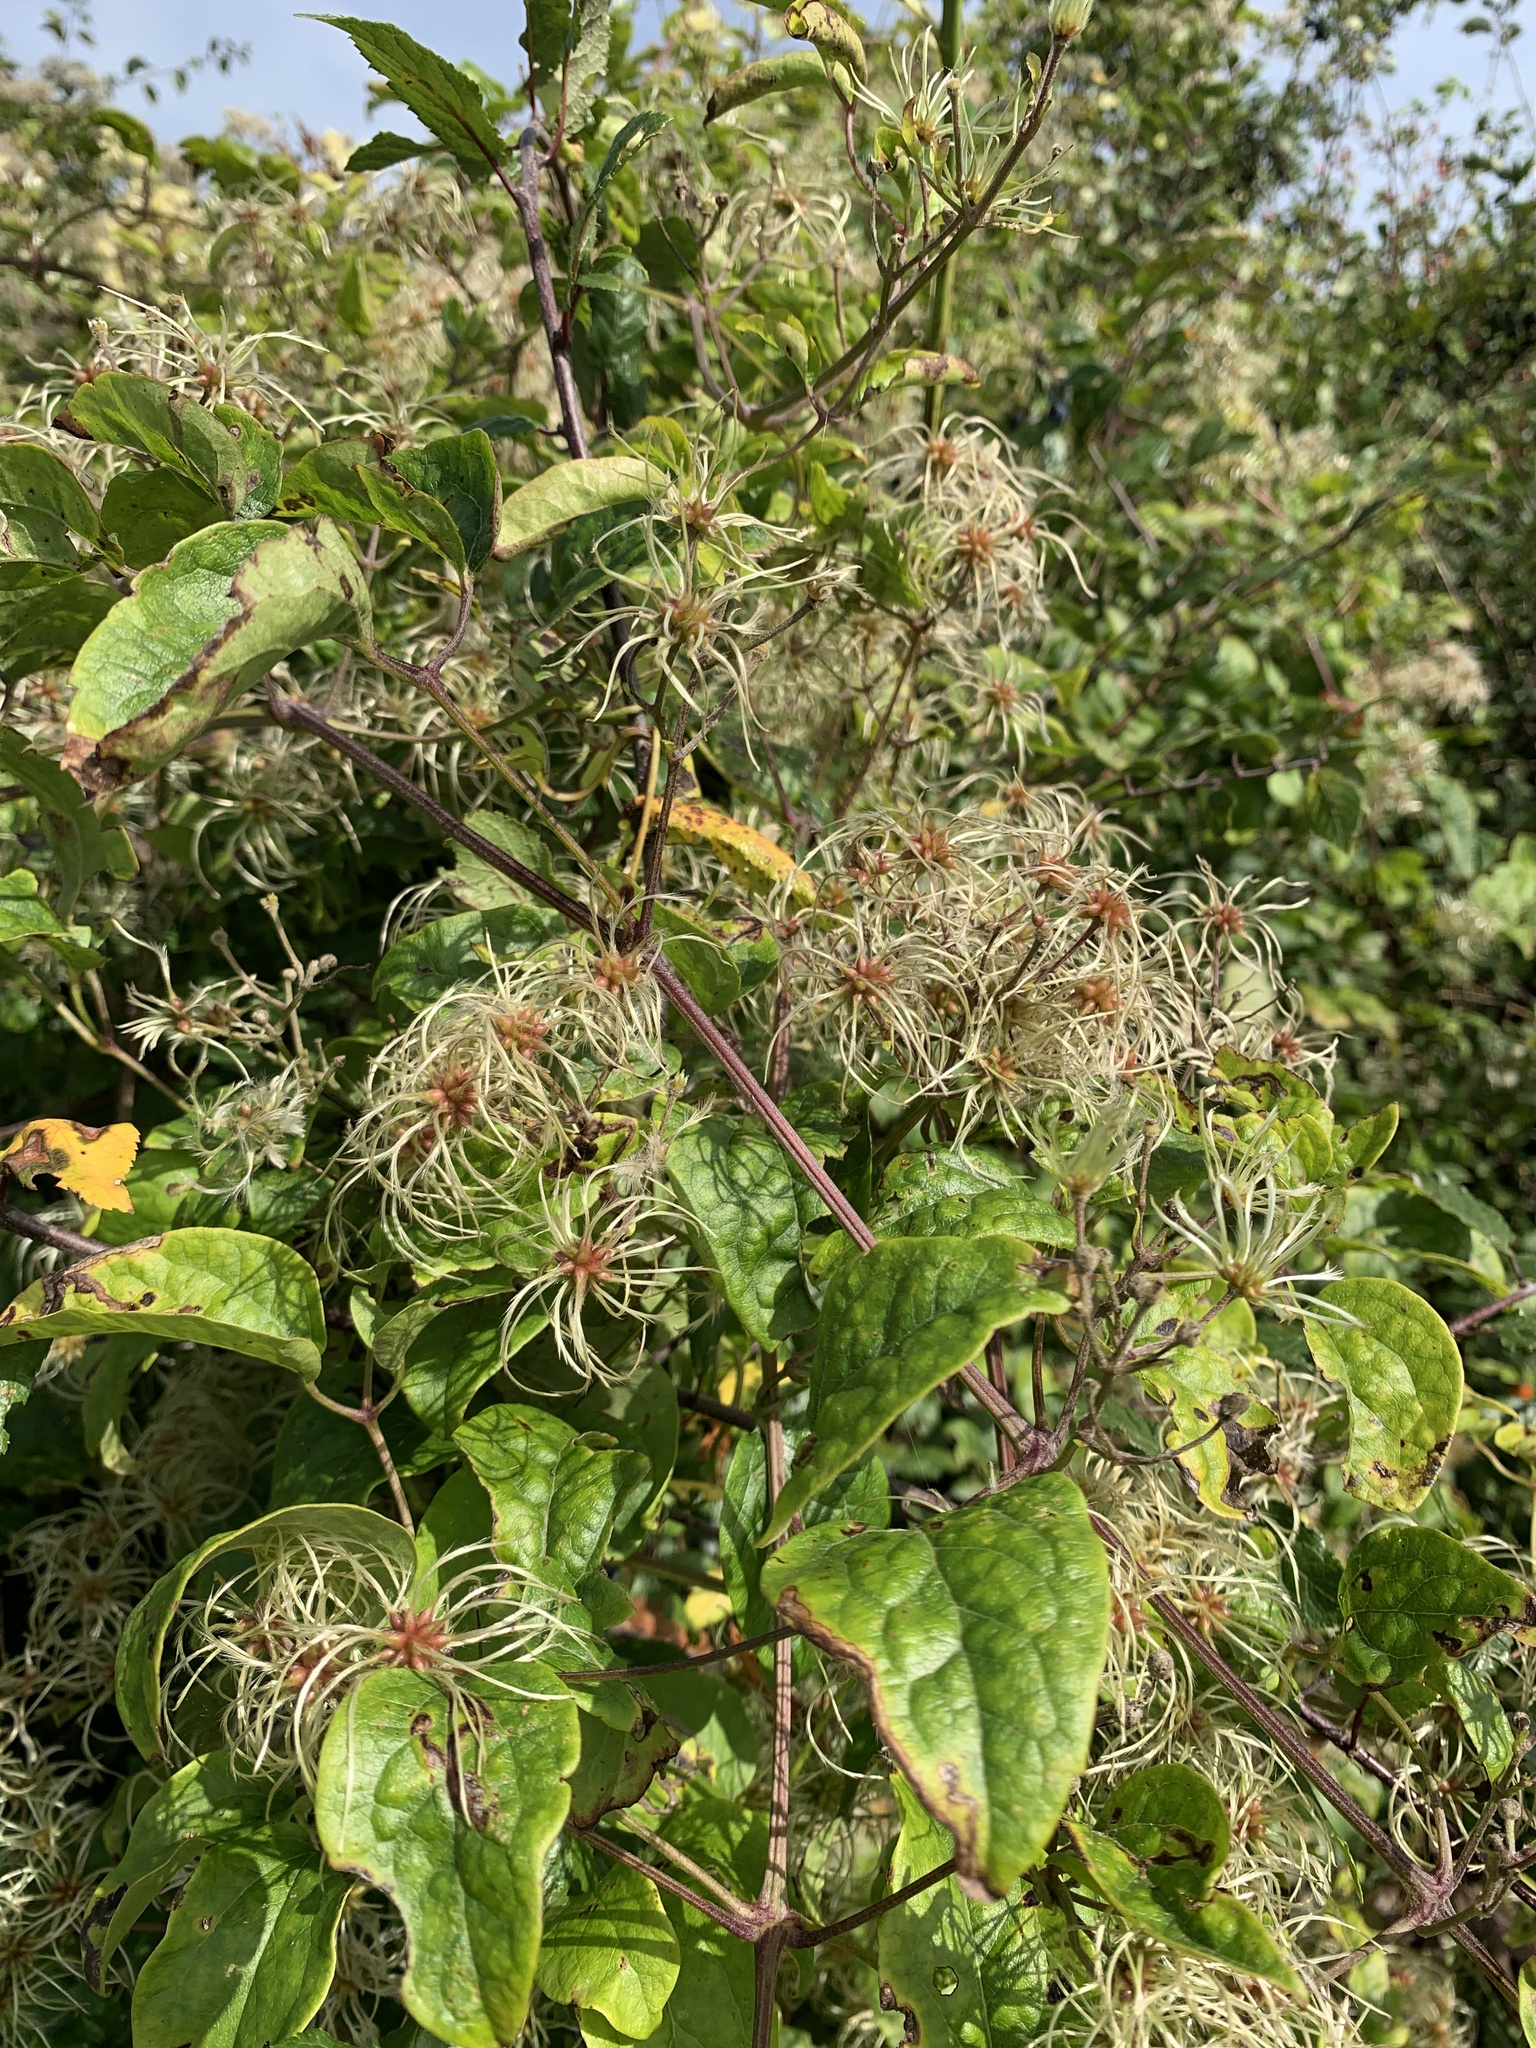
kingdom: Plantae
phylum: Tracheophyta
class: Magnoliopsida
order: Ranunculales
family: Ranunculaceae
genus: Clematis
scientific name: Clematis vitalba
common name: Evergreen clematis
